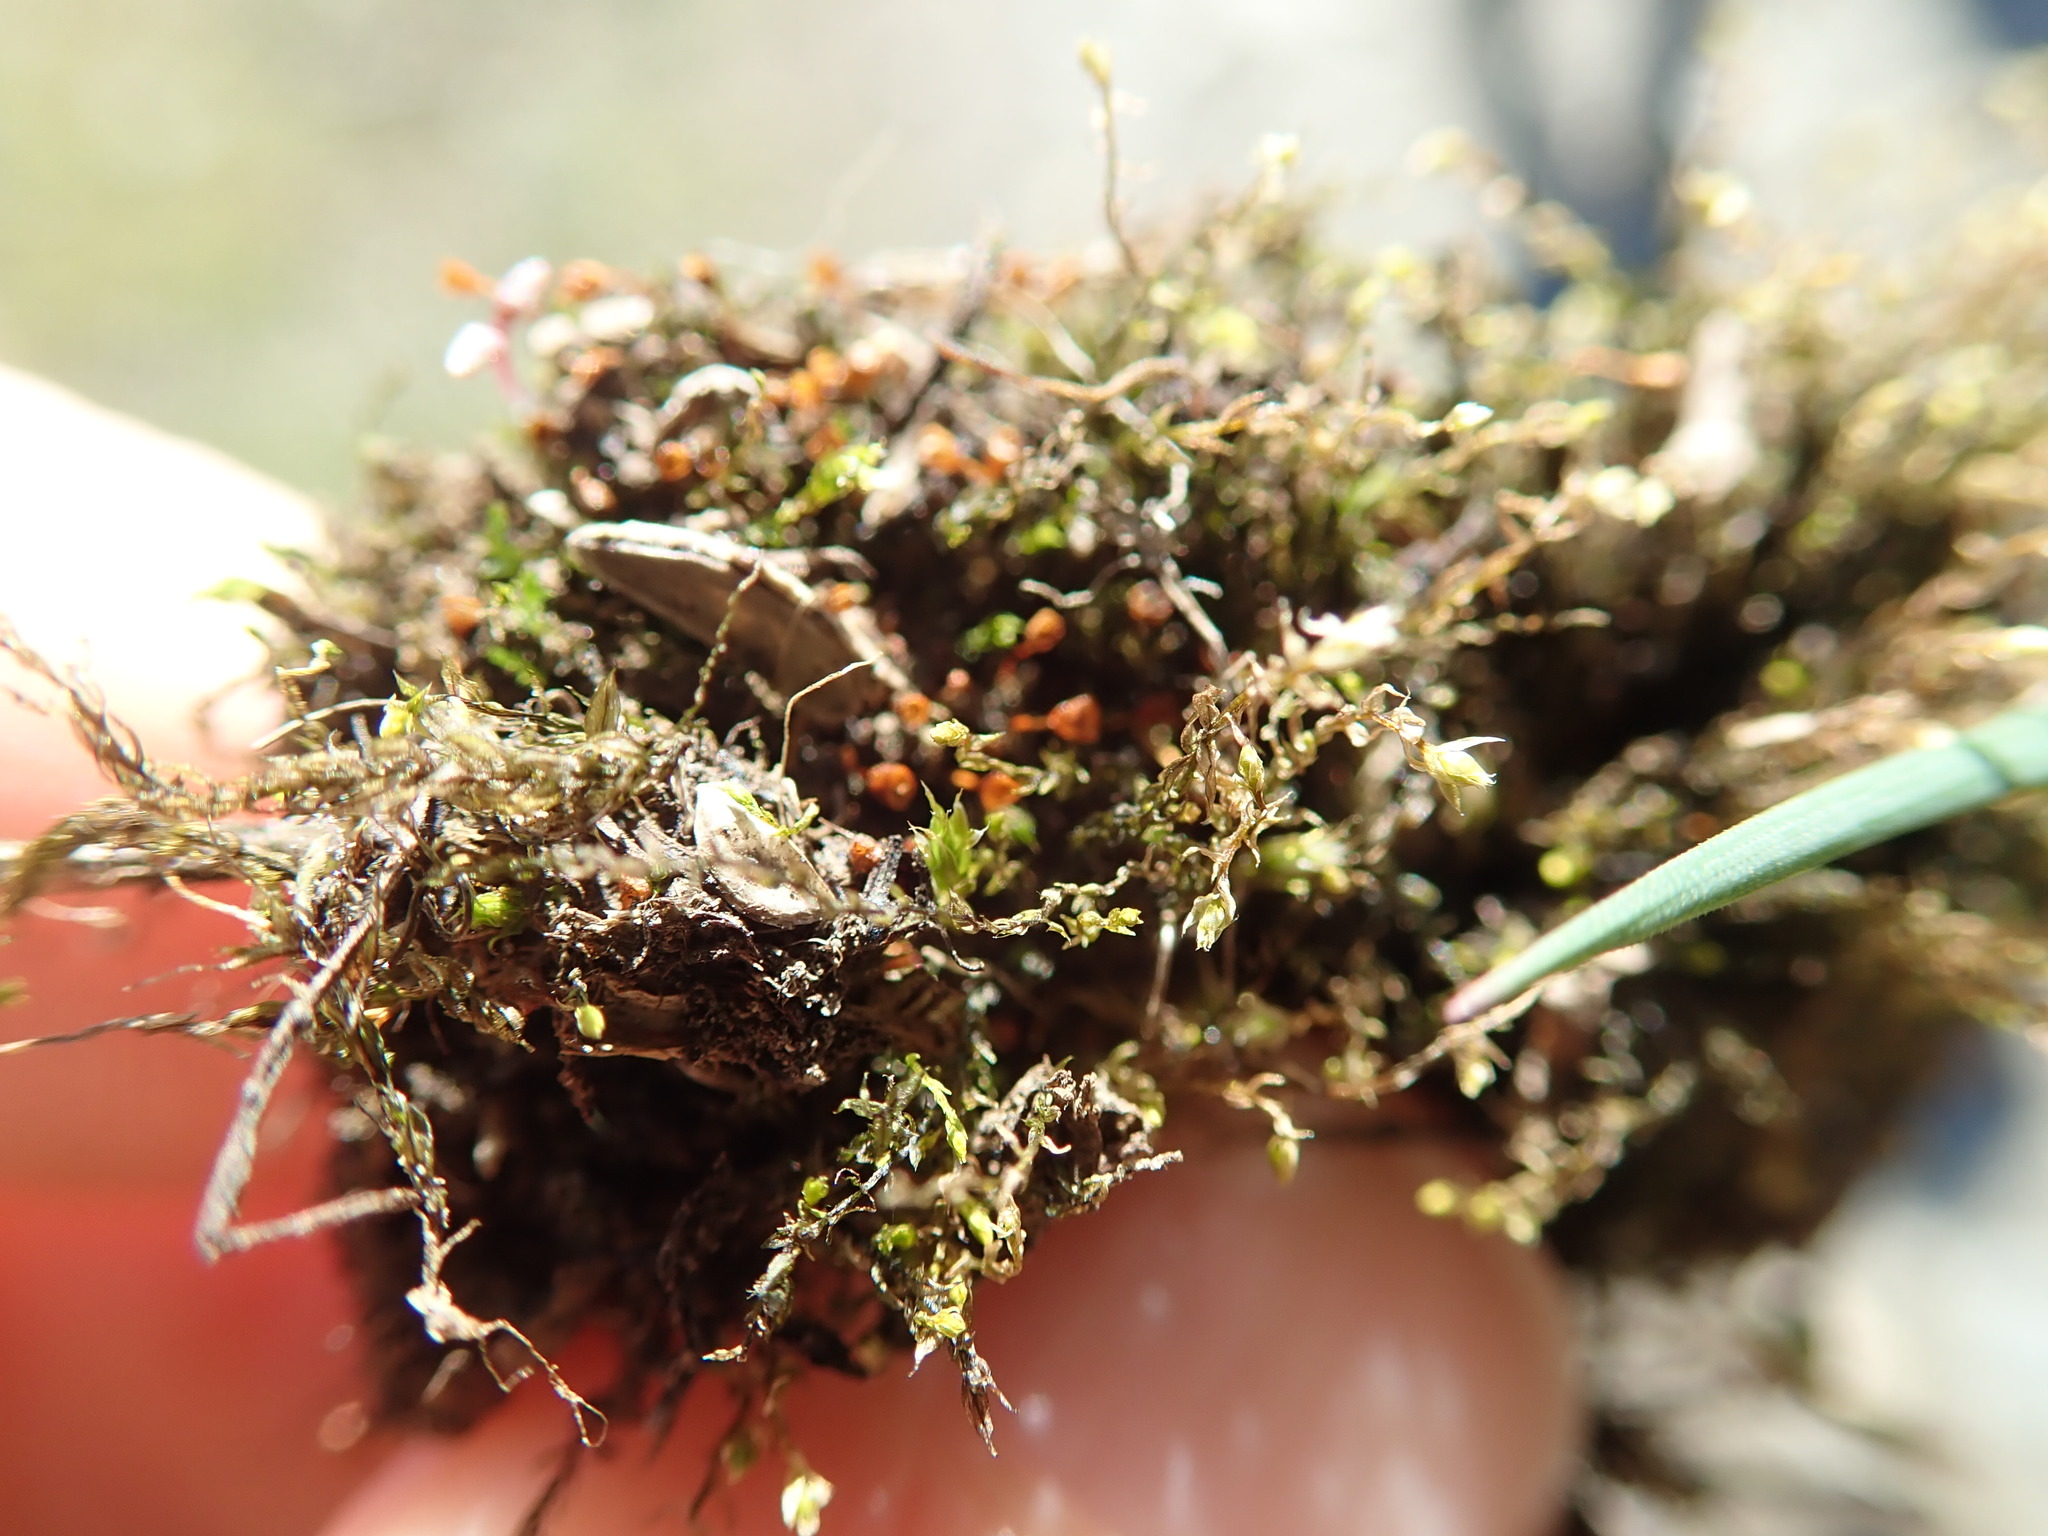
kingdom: Plantae
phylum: Bryophyta
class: Bryopsida
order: Pottiales
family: Pottiaceae
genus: Tortula
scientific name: Tortula truncata
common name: Truncated screw moss
